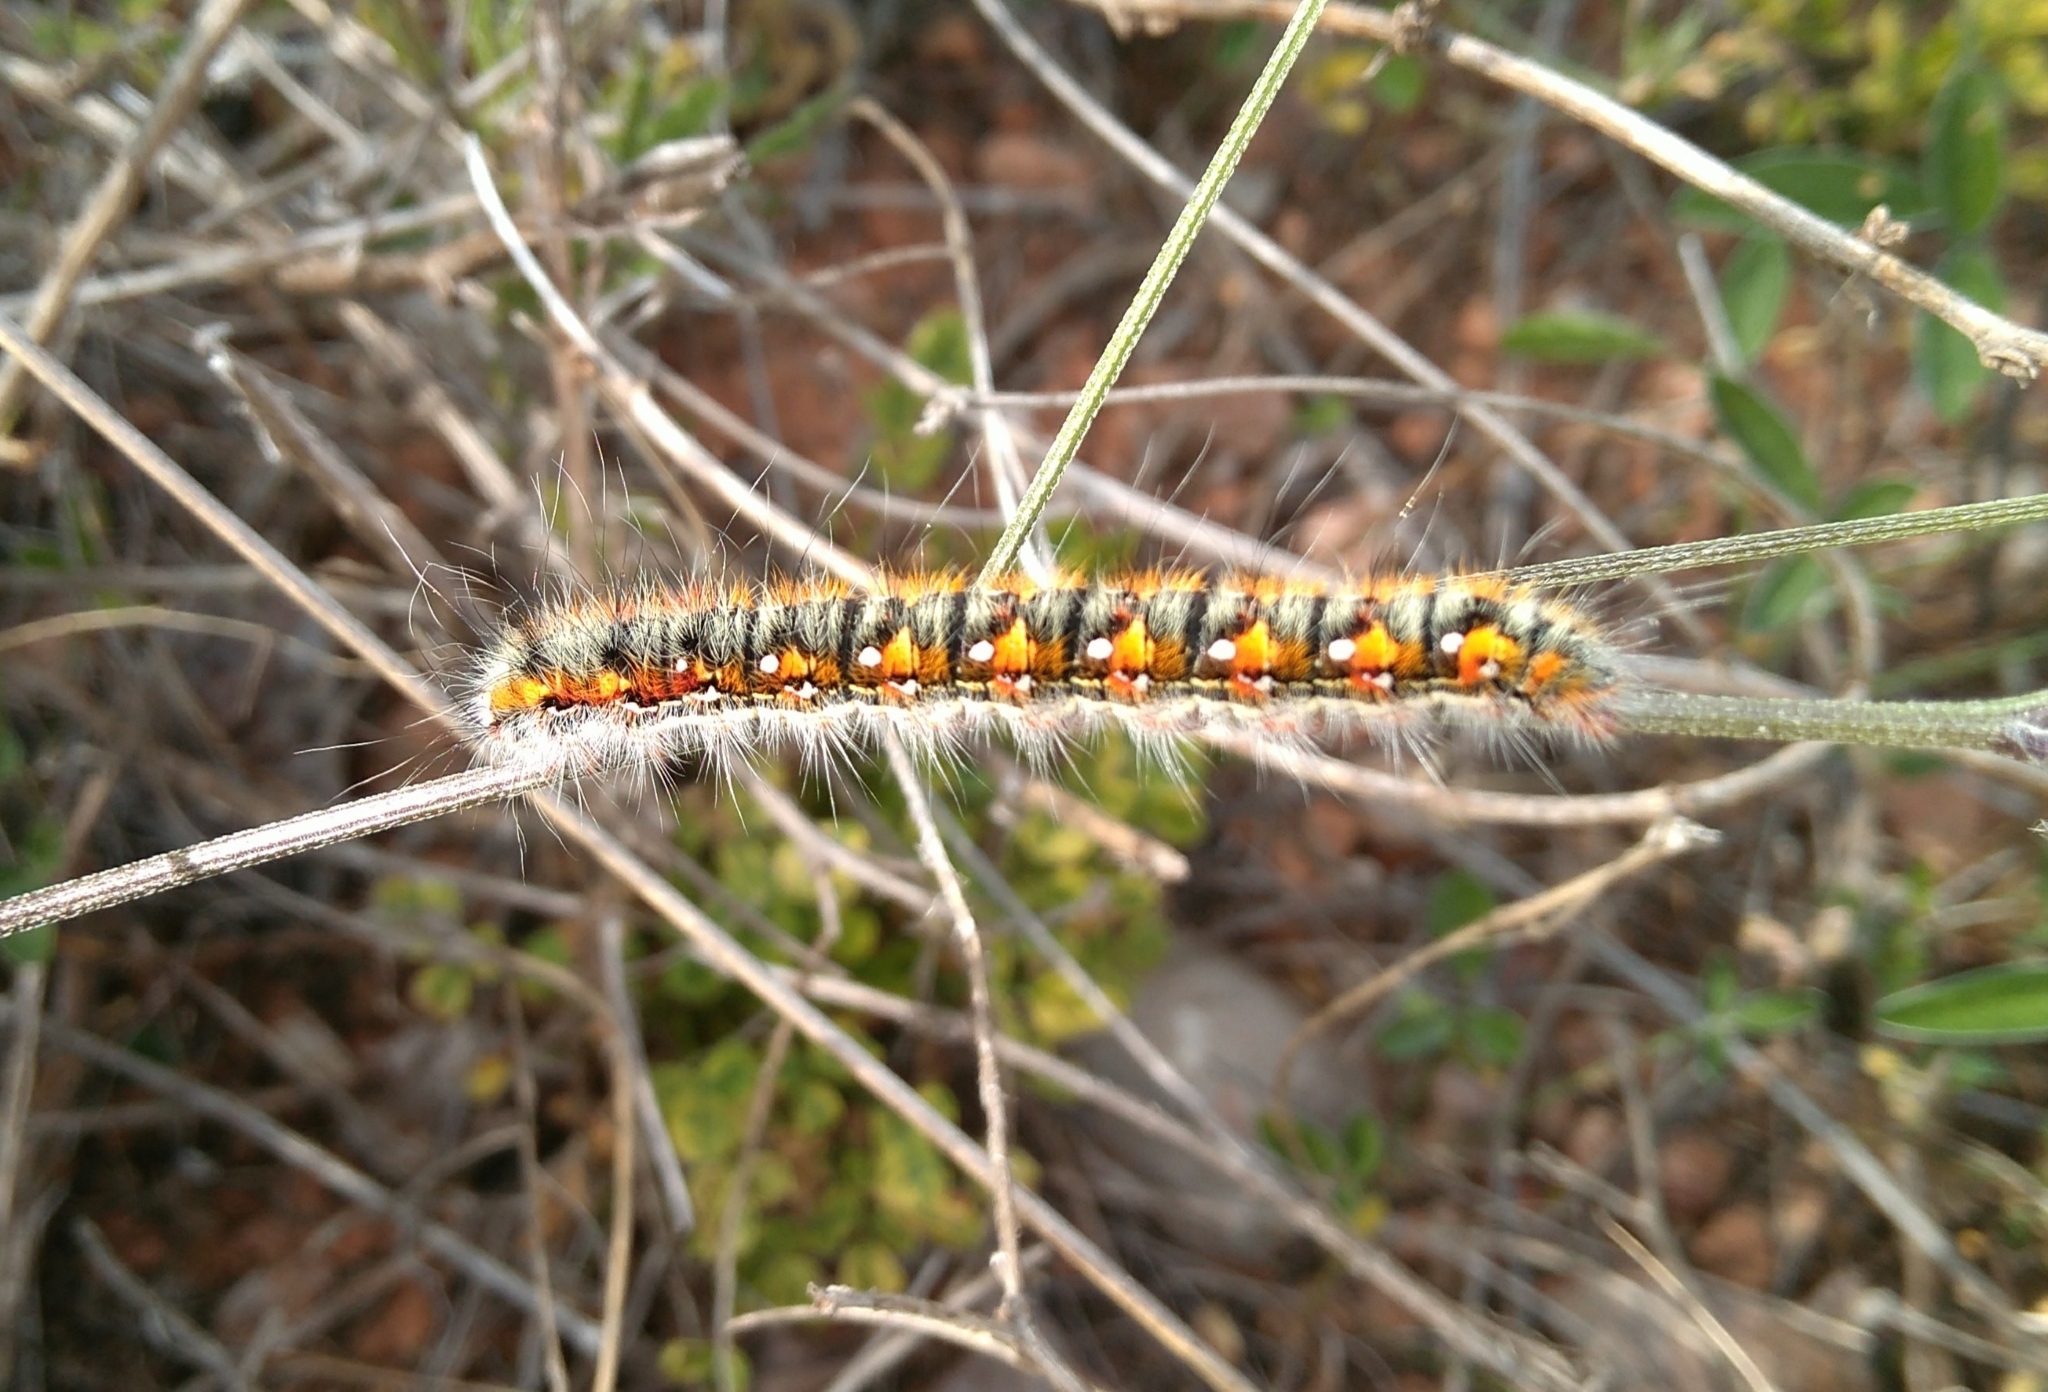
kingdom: Animalia
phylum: Arthropoda
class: Insecta
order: Lepidoptera
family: Lasiocampidae
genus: Psilogaster
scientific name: Psilogaster loti
